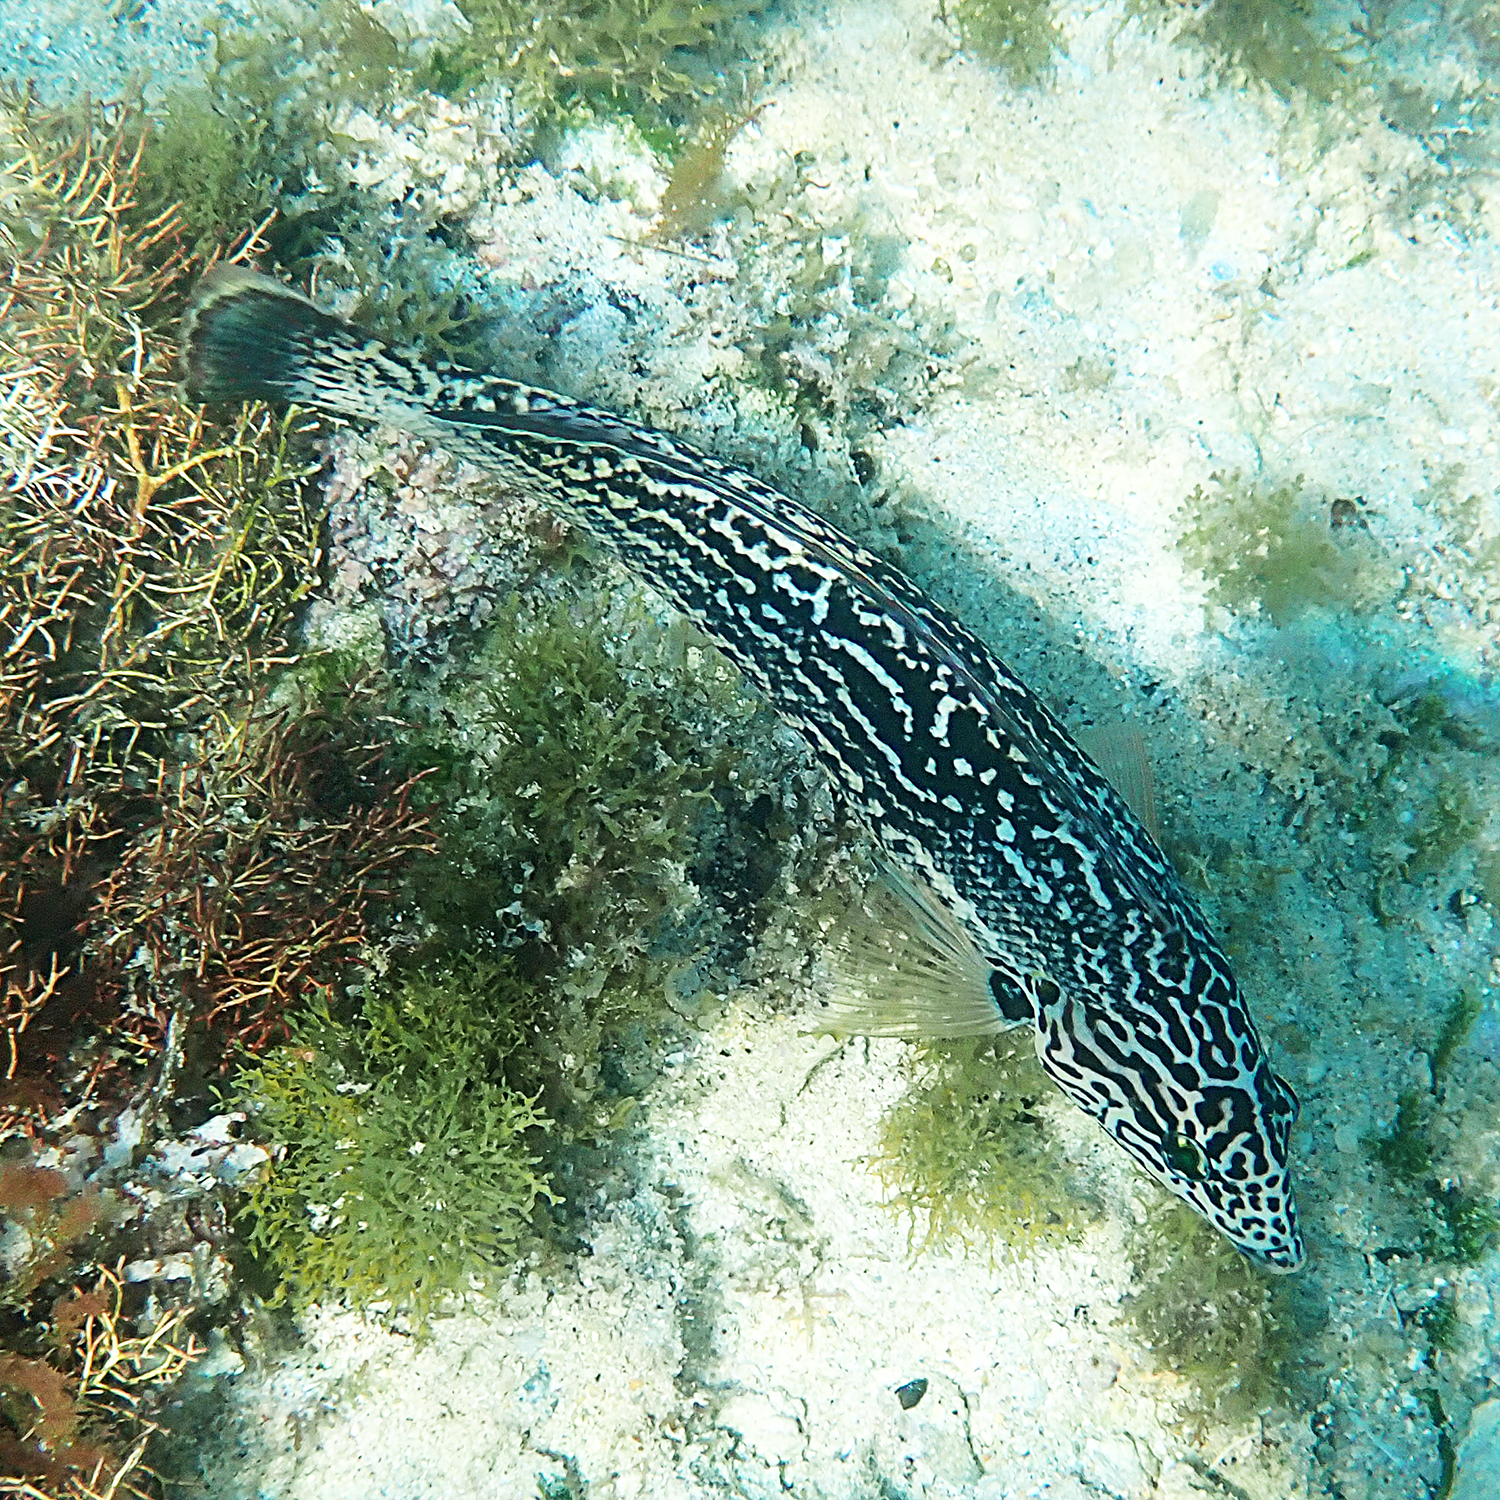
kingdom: Animalia
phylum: Chordata
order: Perciformes
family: Labridae
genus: Coris
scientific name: Coris bulbifrons
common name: Doubleheader
